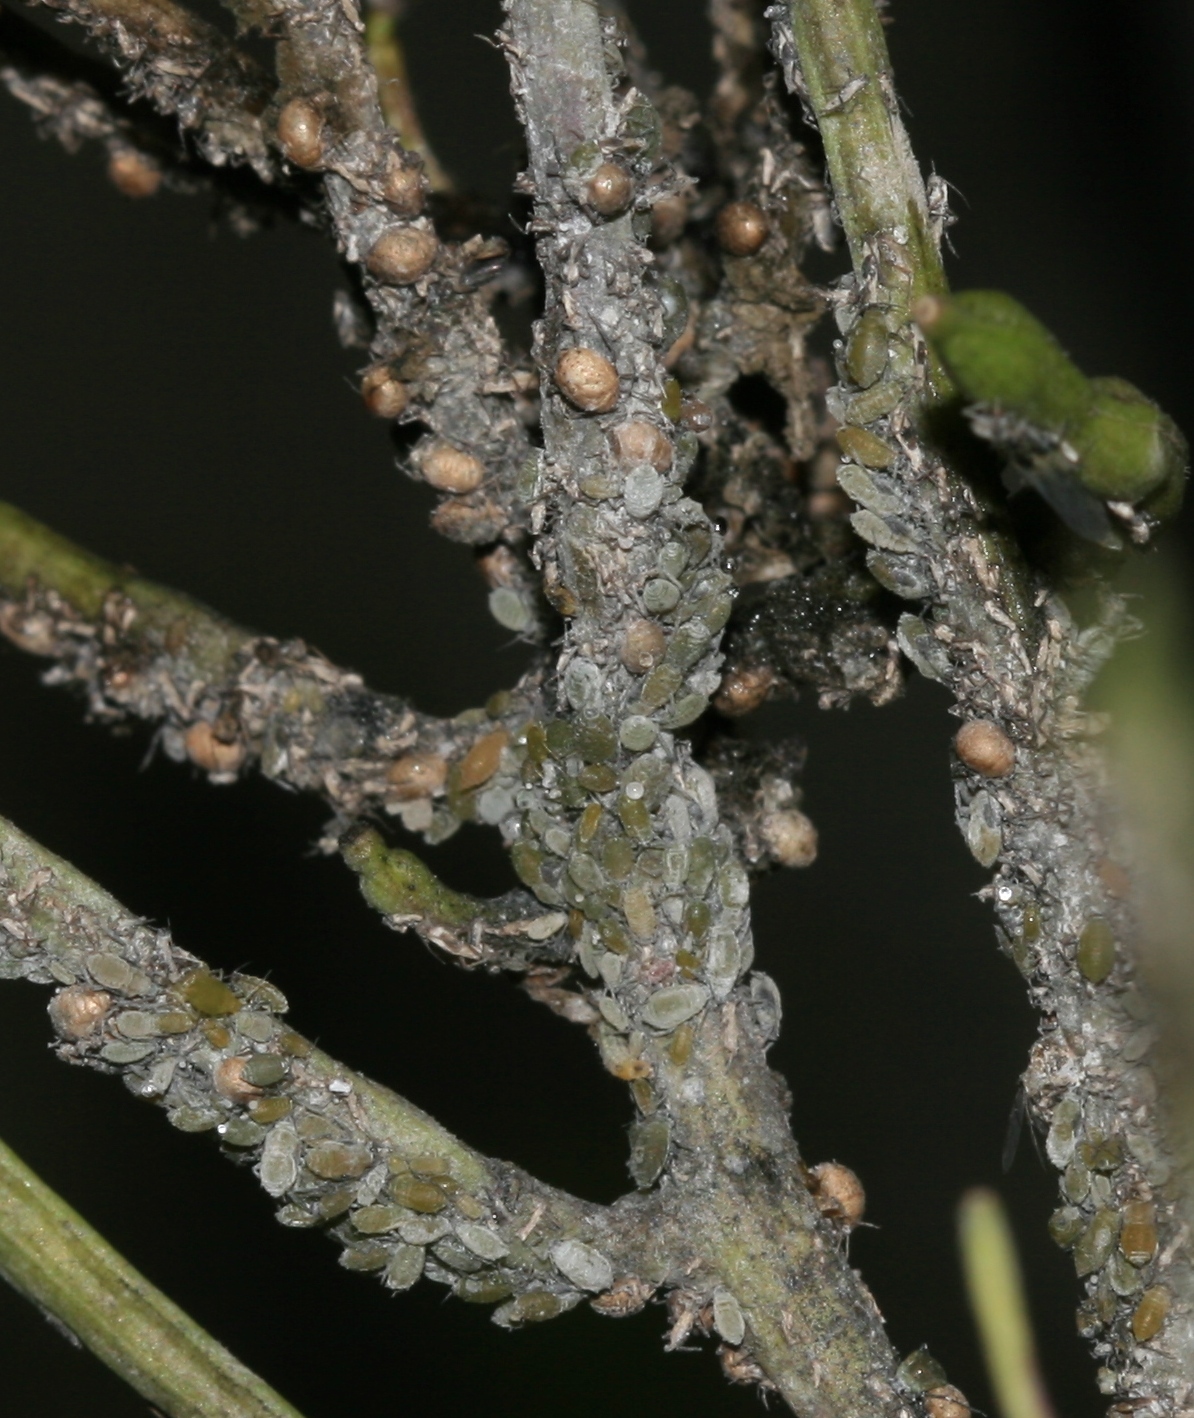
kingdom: Animalia
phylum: Arthropoda
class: Insecta
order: Hemiptera
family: Aphididae
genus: Brevicoryne
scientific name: Brevicoryne brassicae
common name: Cabbage aphid
